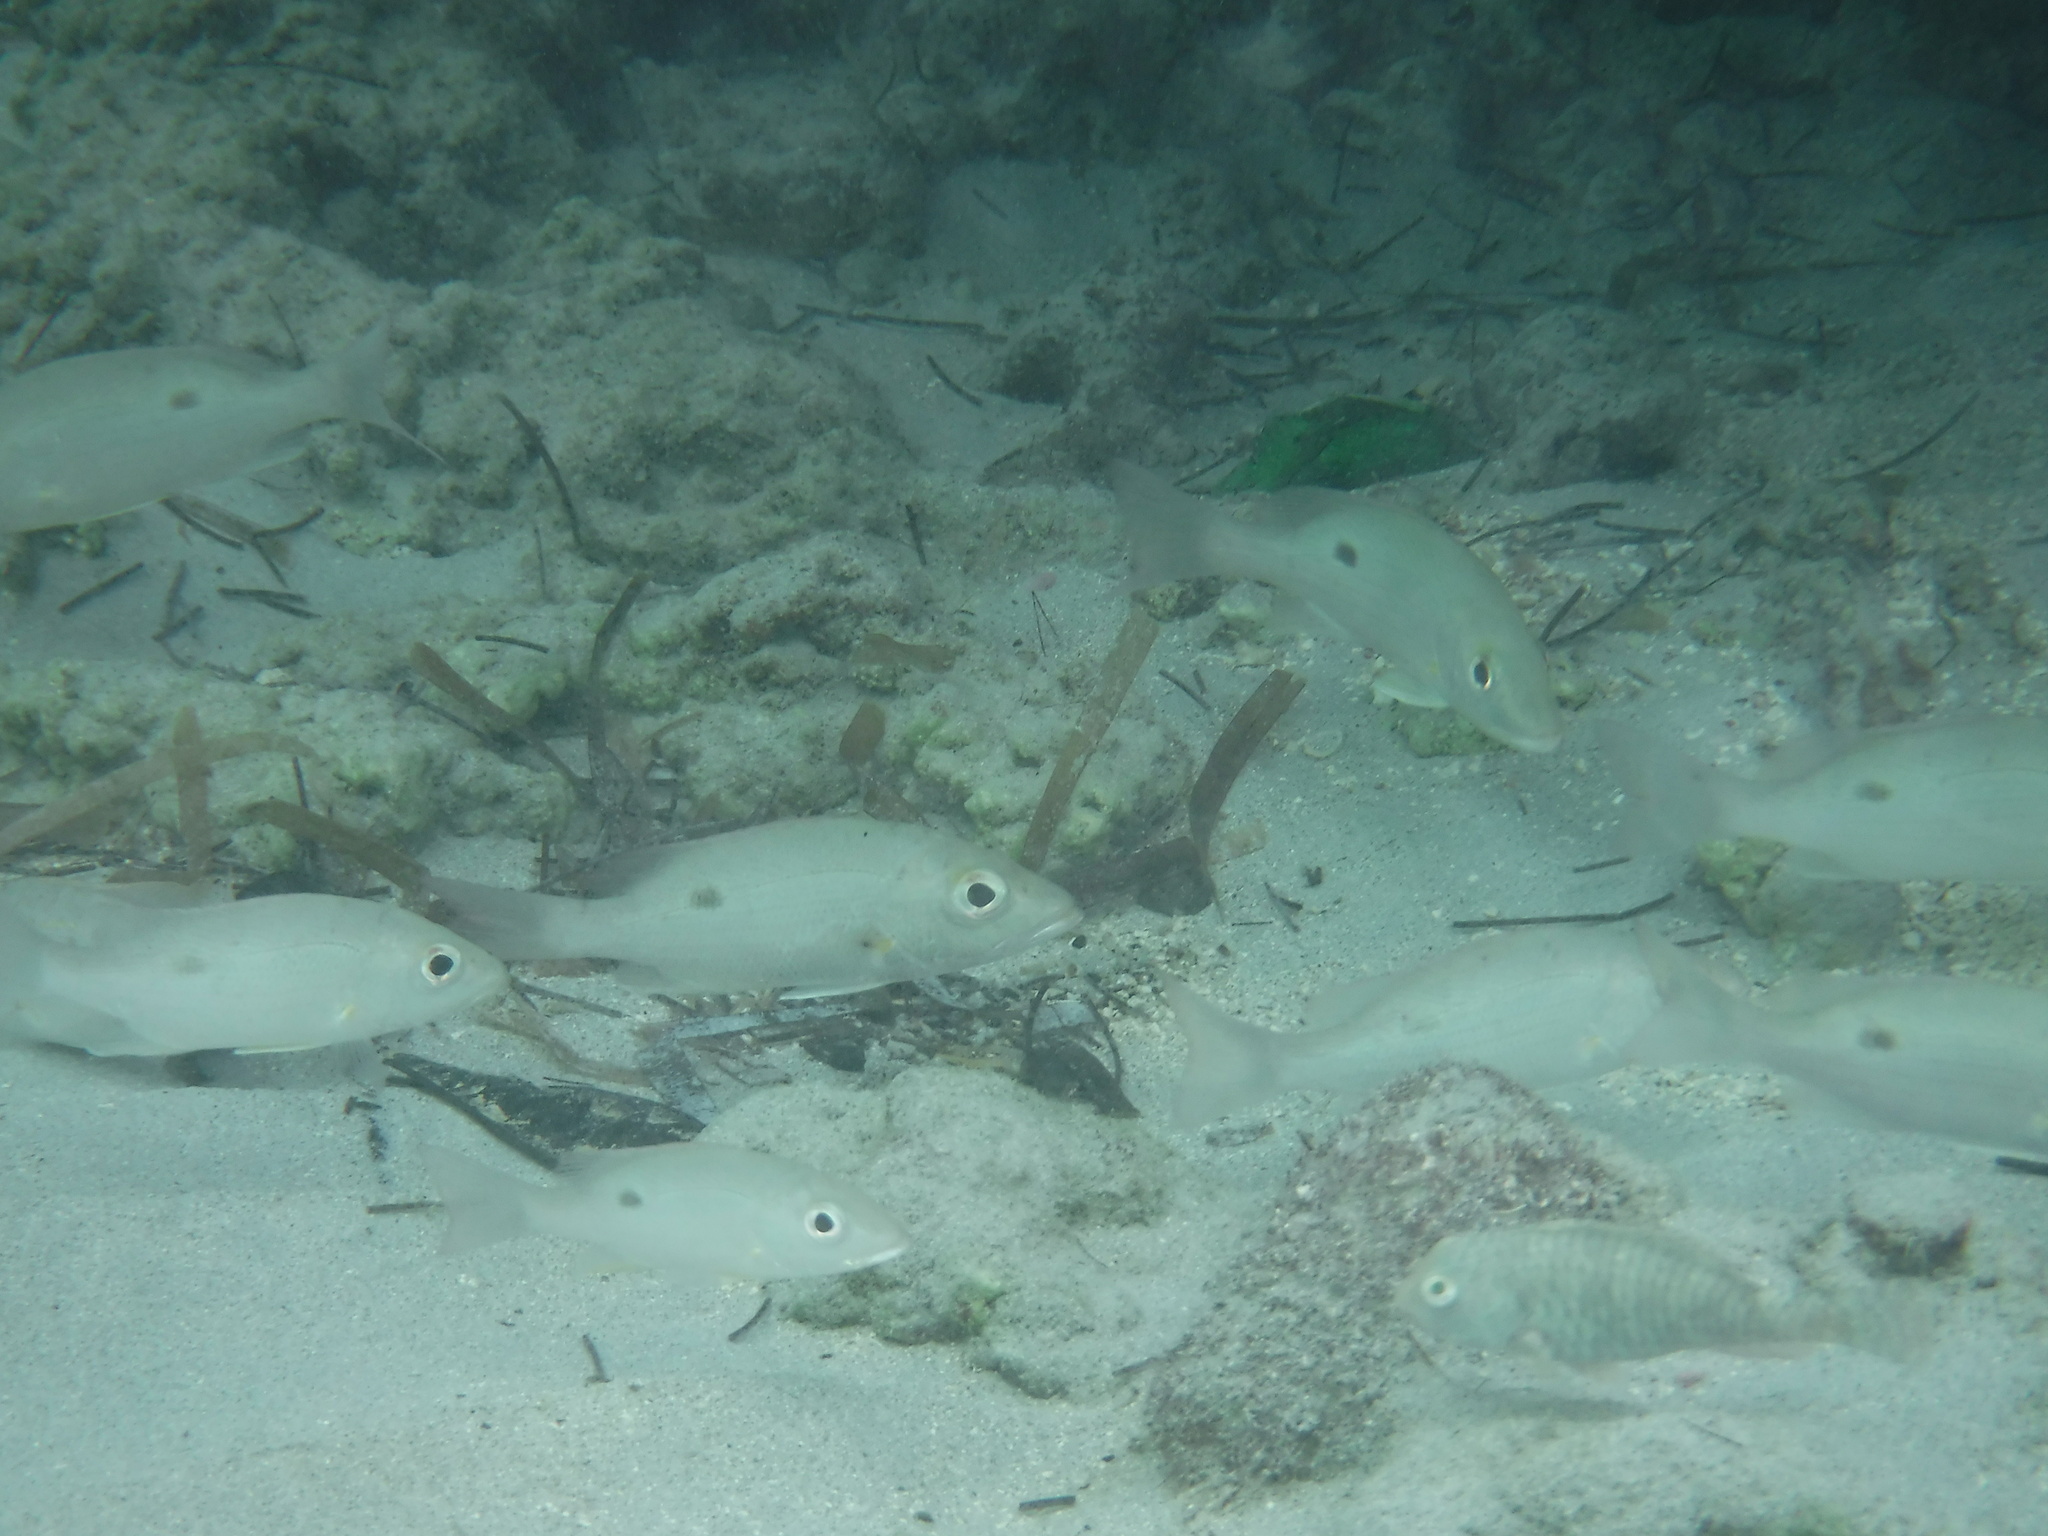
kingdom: Animalia
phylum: Chordata
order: Perciformes
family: Lutjanidae
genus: Lutjanus
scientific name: Lutjanus mahogoni
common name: Spot snapper
